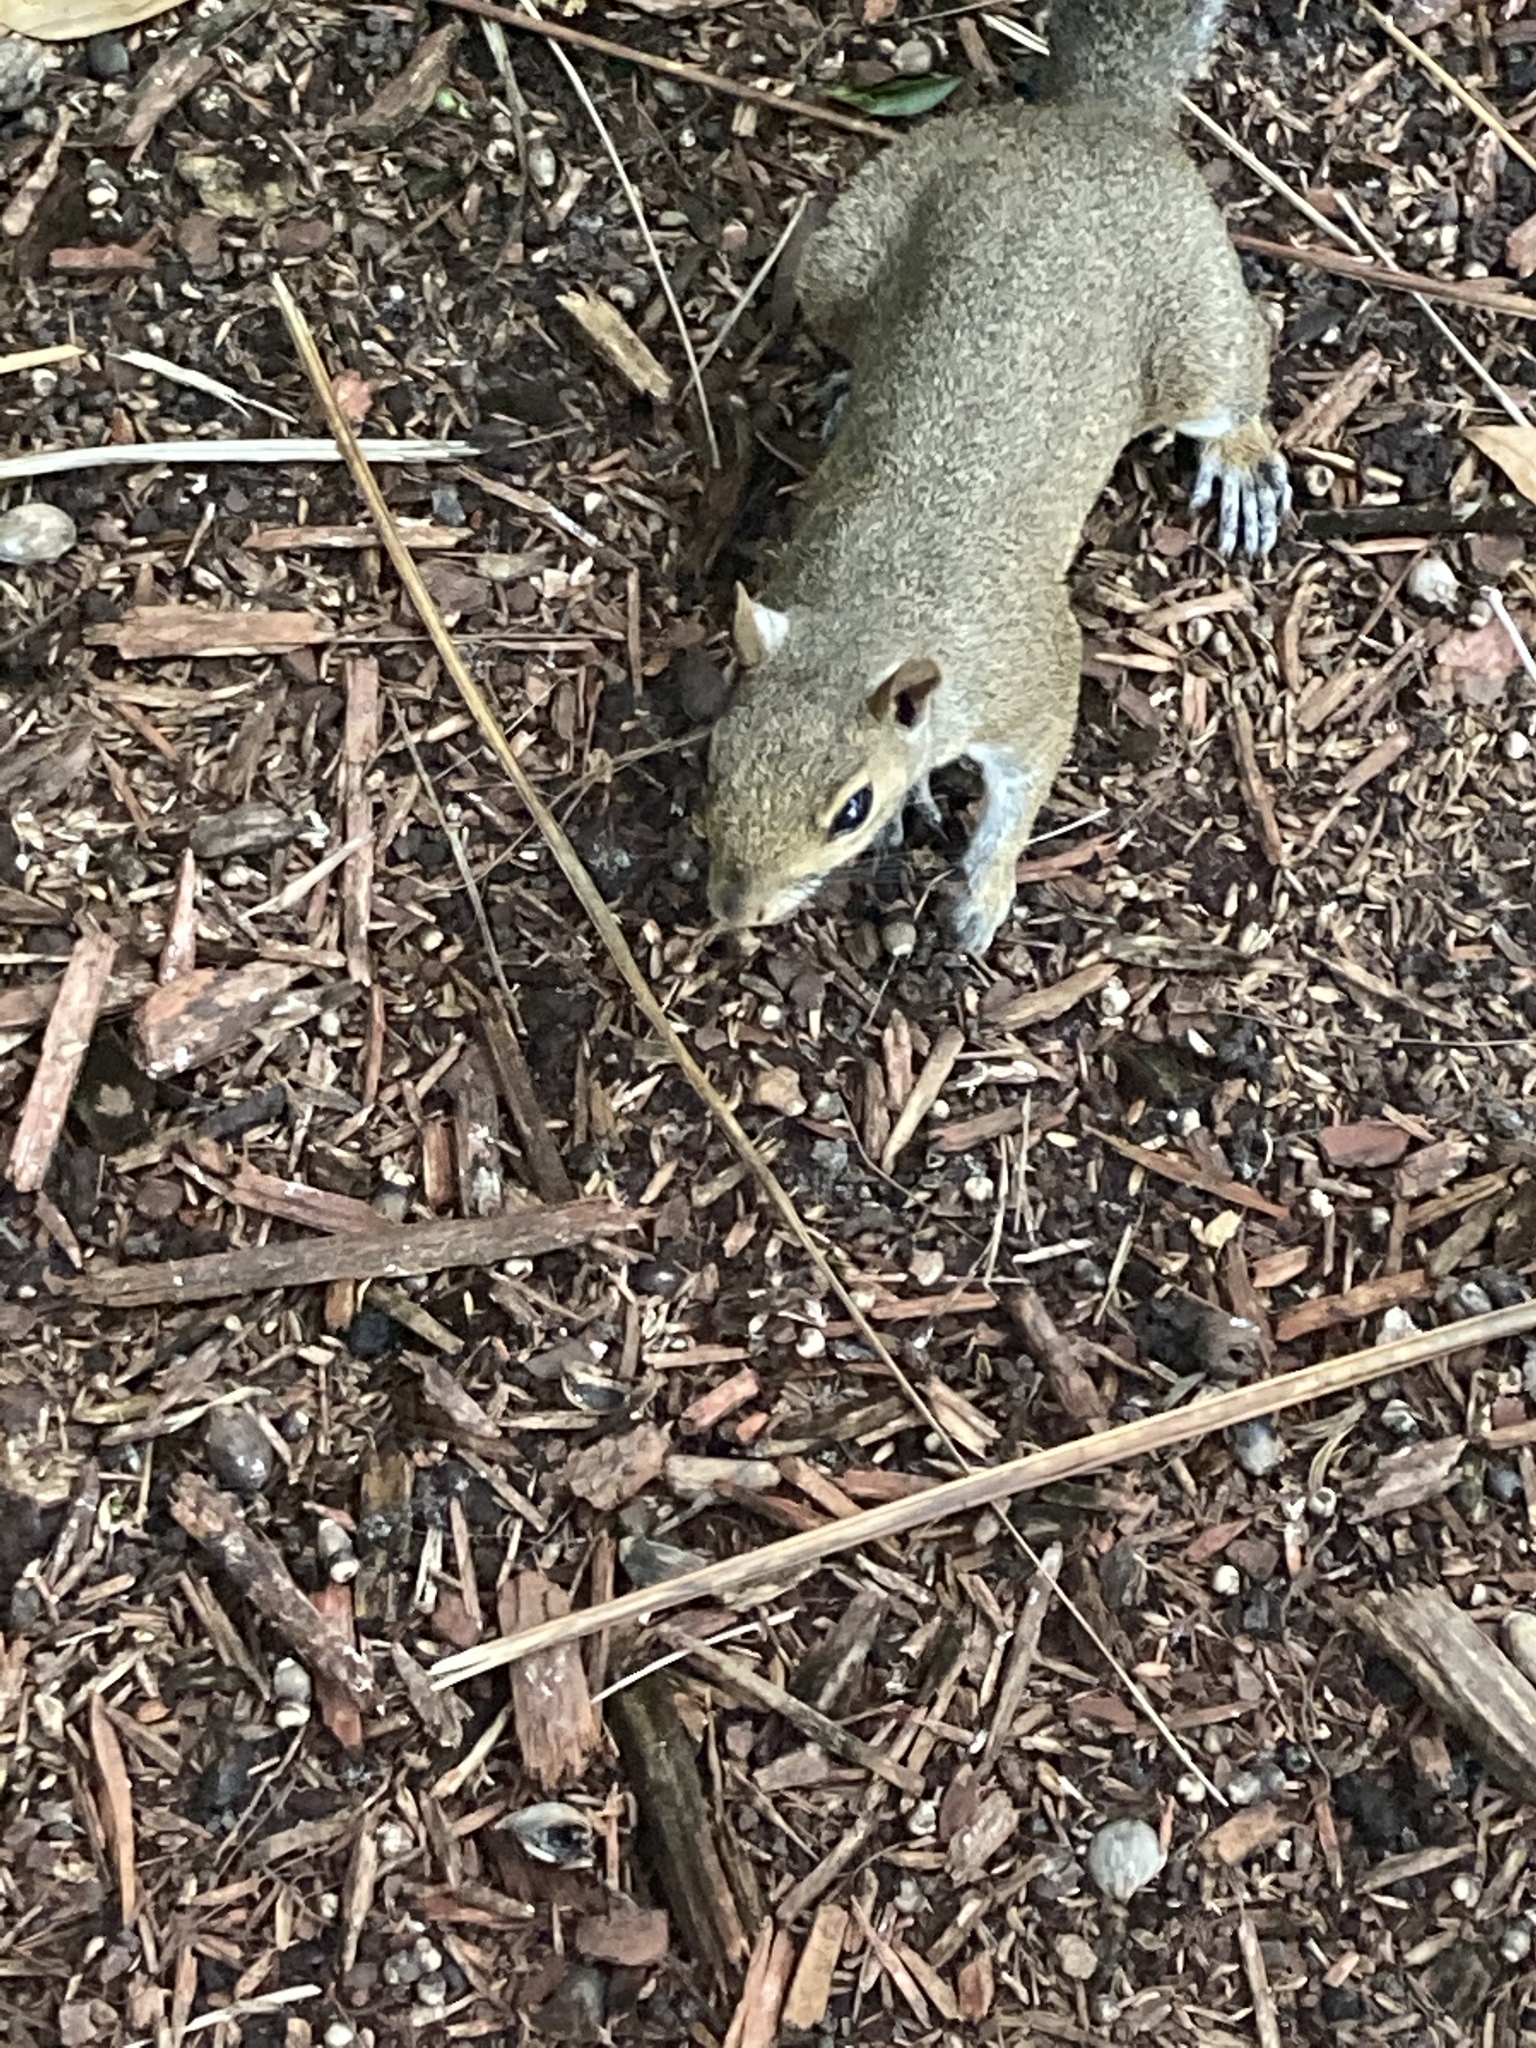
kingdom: Animalia
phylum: Chordata
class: Mammalia
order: Rodentia
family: Sciuridae
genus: Sciurus
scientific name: Sciurus carolinensis
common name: Eastern gray squirrel
